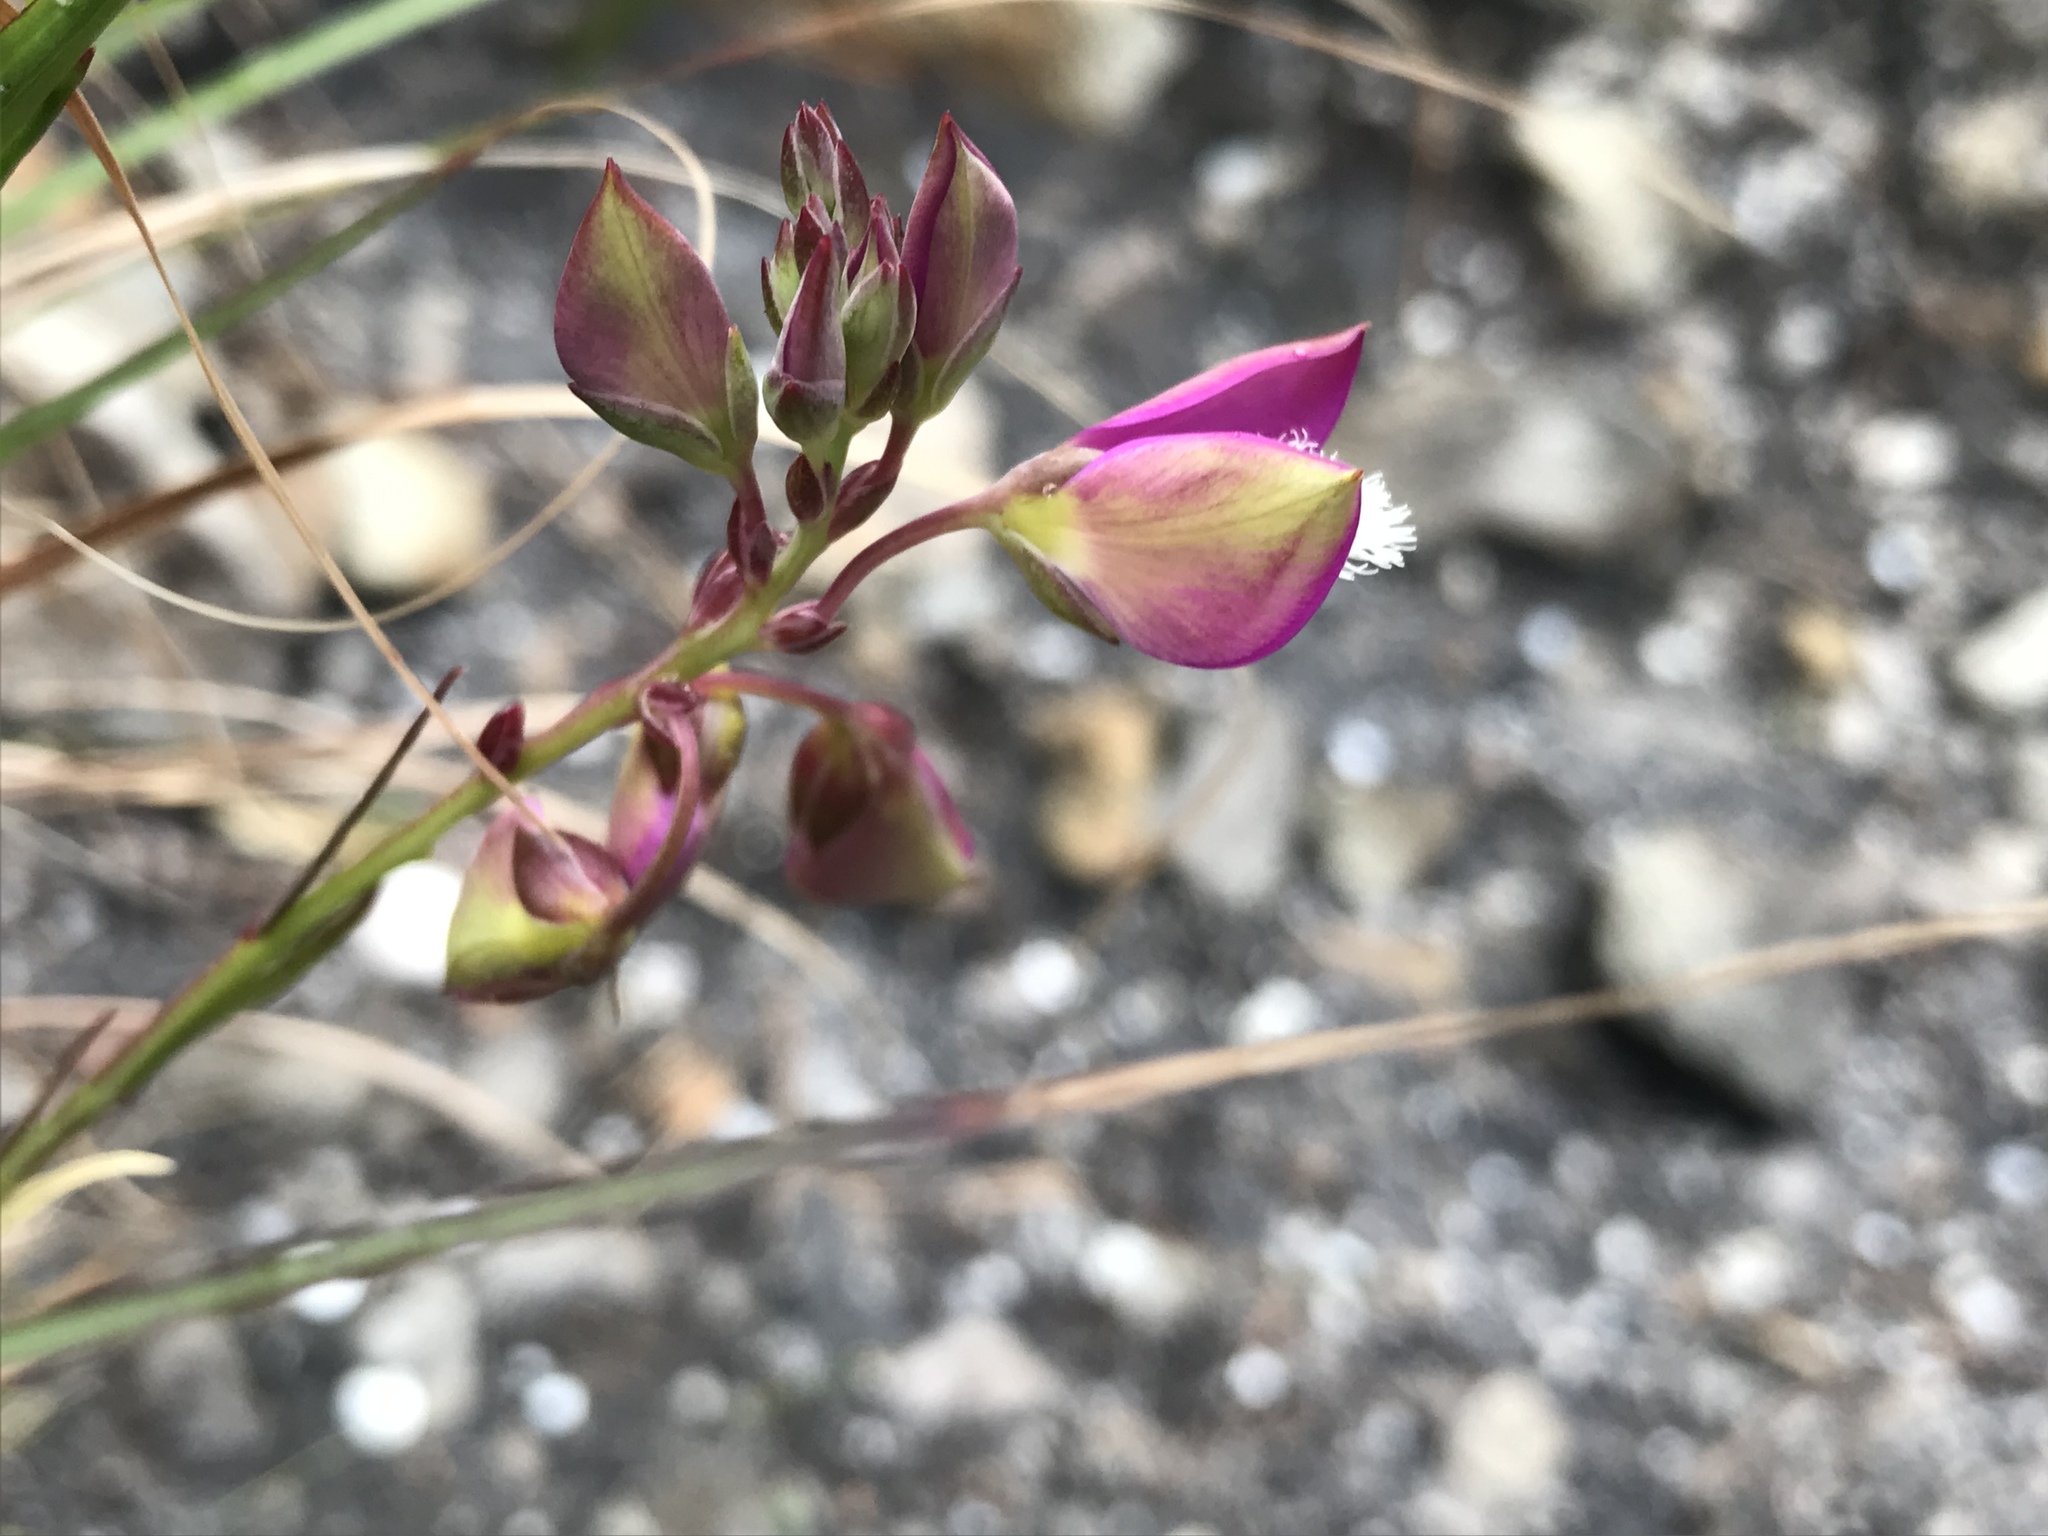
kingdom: Plantae
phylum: Tracheophyta
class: Magnoliopsida
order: Fabales
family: Polygalaceae
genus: Polygala
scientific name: Polygala bracteolata
